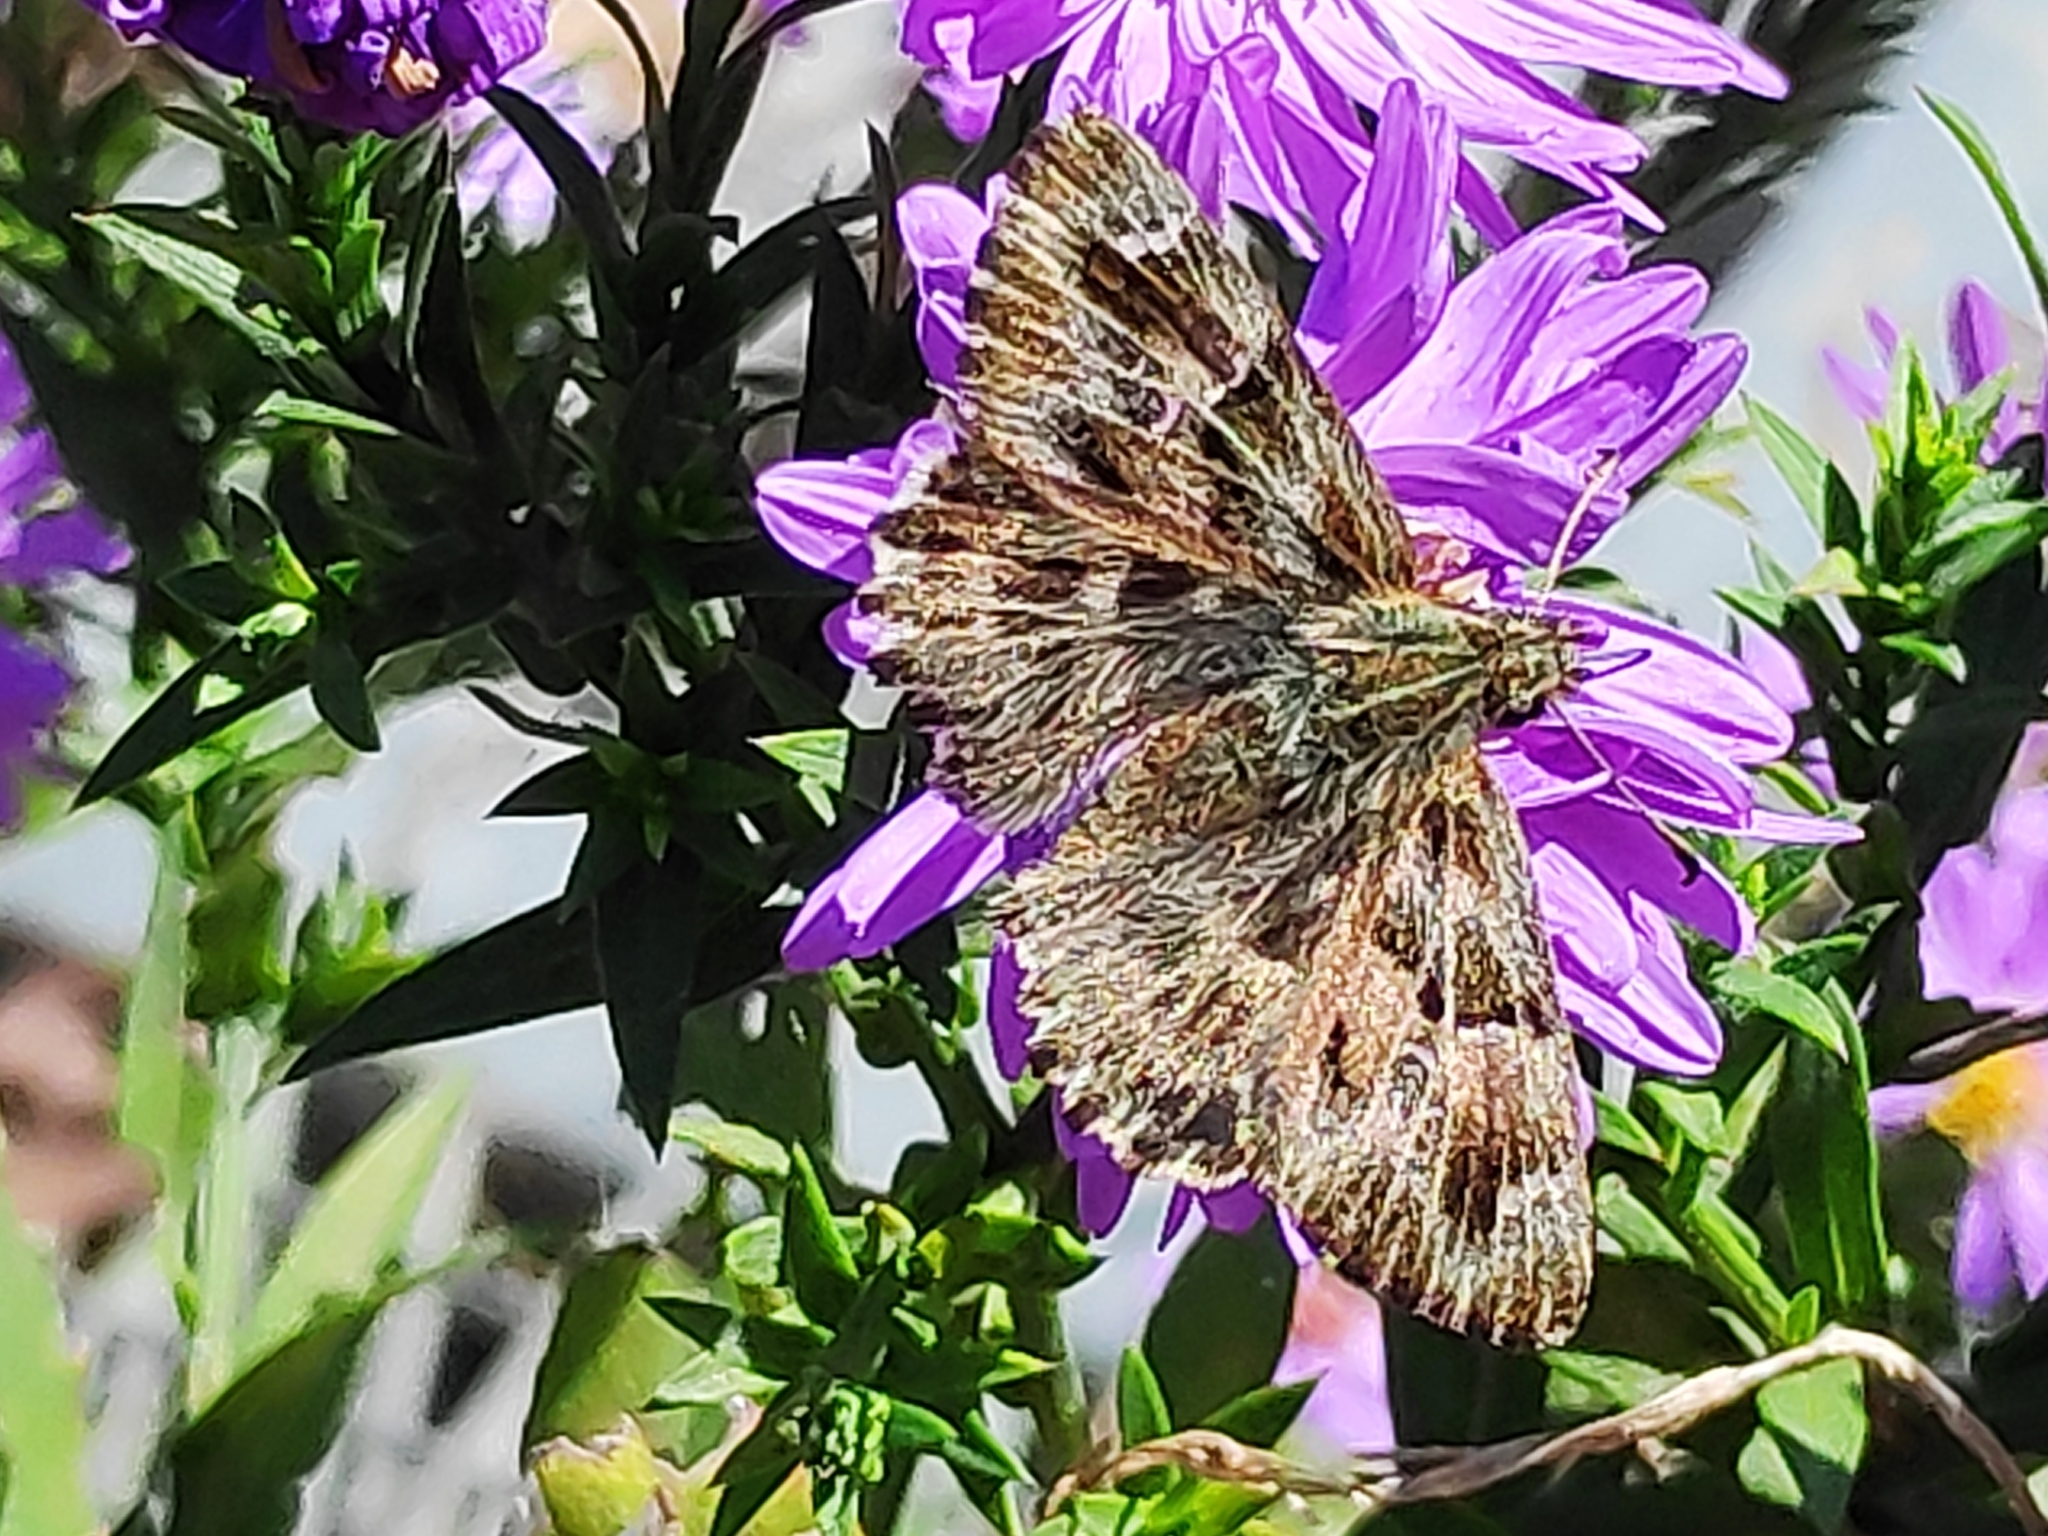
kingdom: Animalia
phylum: Arthropoda
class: Insecta
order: Lepidoptera
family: Hesperiidae
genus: Carcharodus
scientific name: Carcharodus alceae
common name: Mallow skipper
